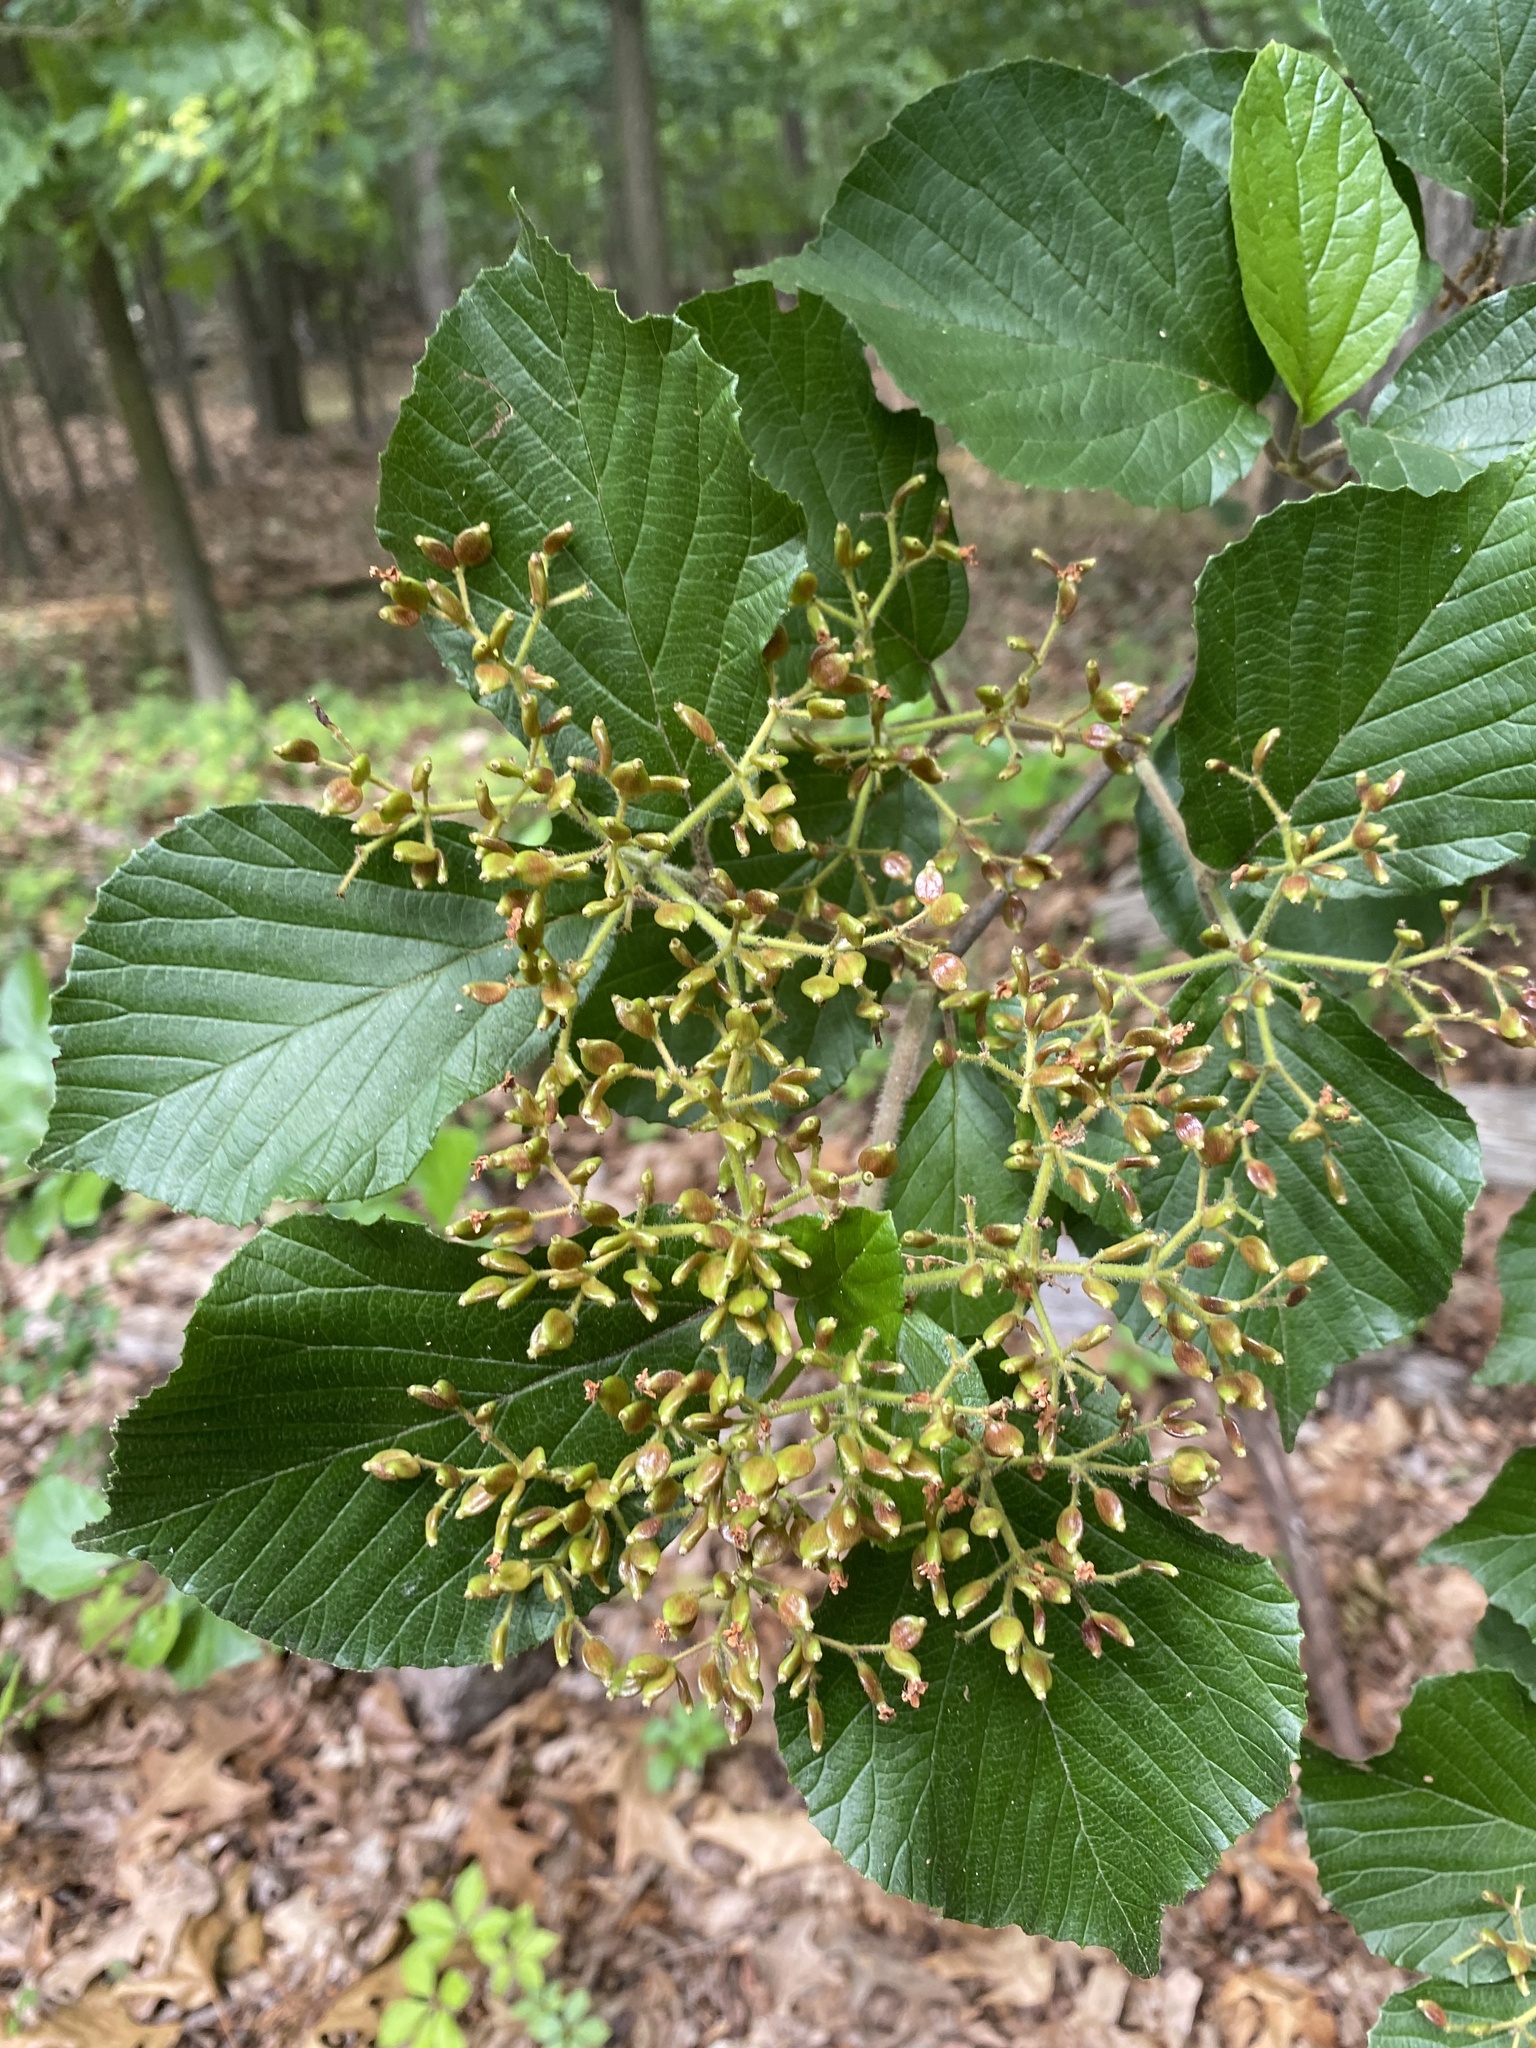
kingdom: Plantae
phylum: Tracheophyta
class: Magnoliopsida
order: Dipsacales
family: Viburnaceae
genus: Viburnum
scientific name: Viburnum dilatatum
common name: Linden arrowwood
